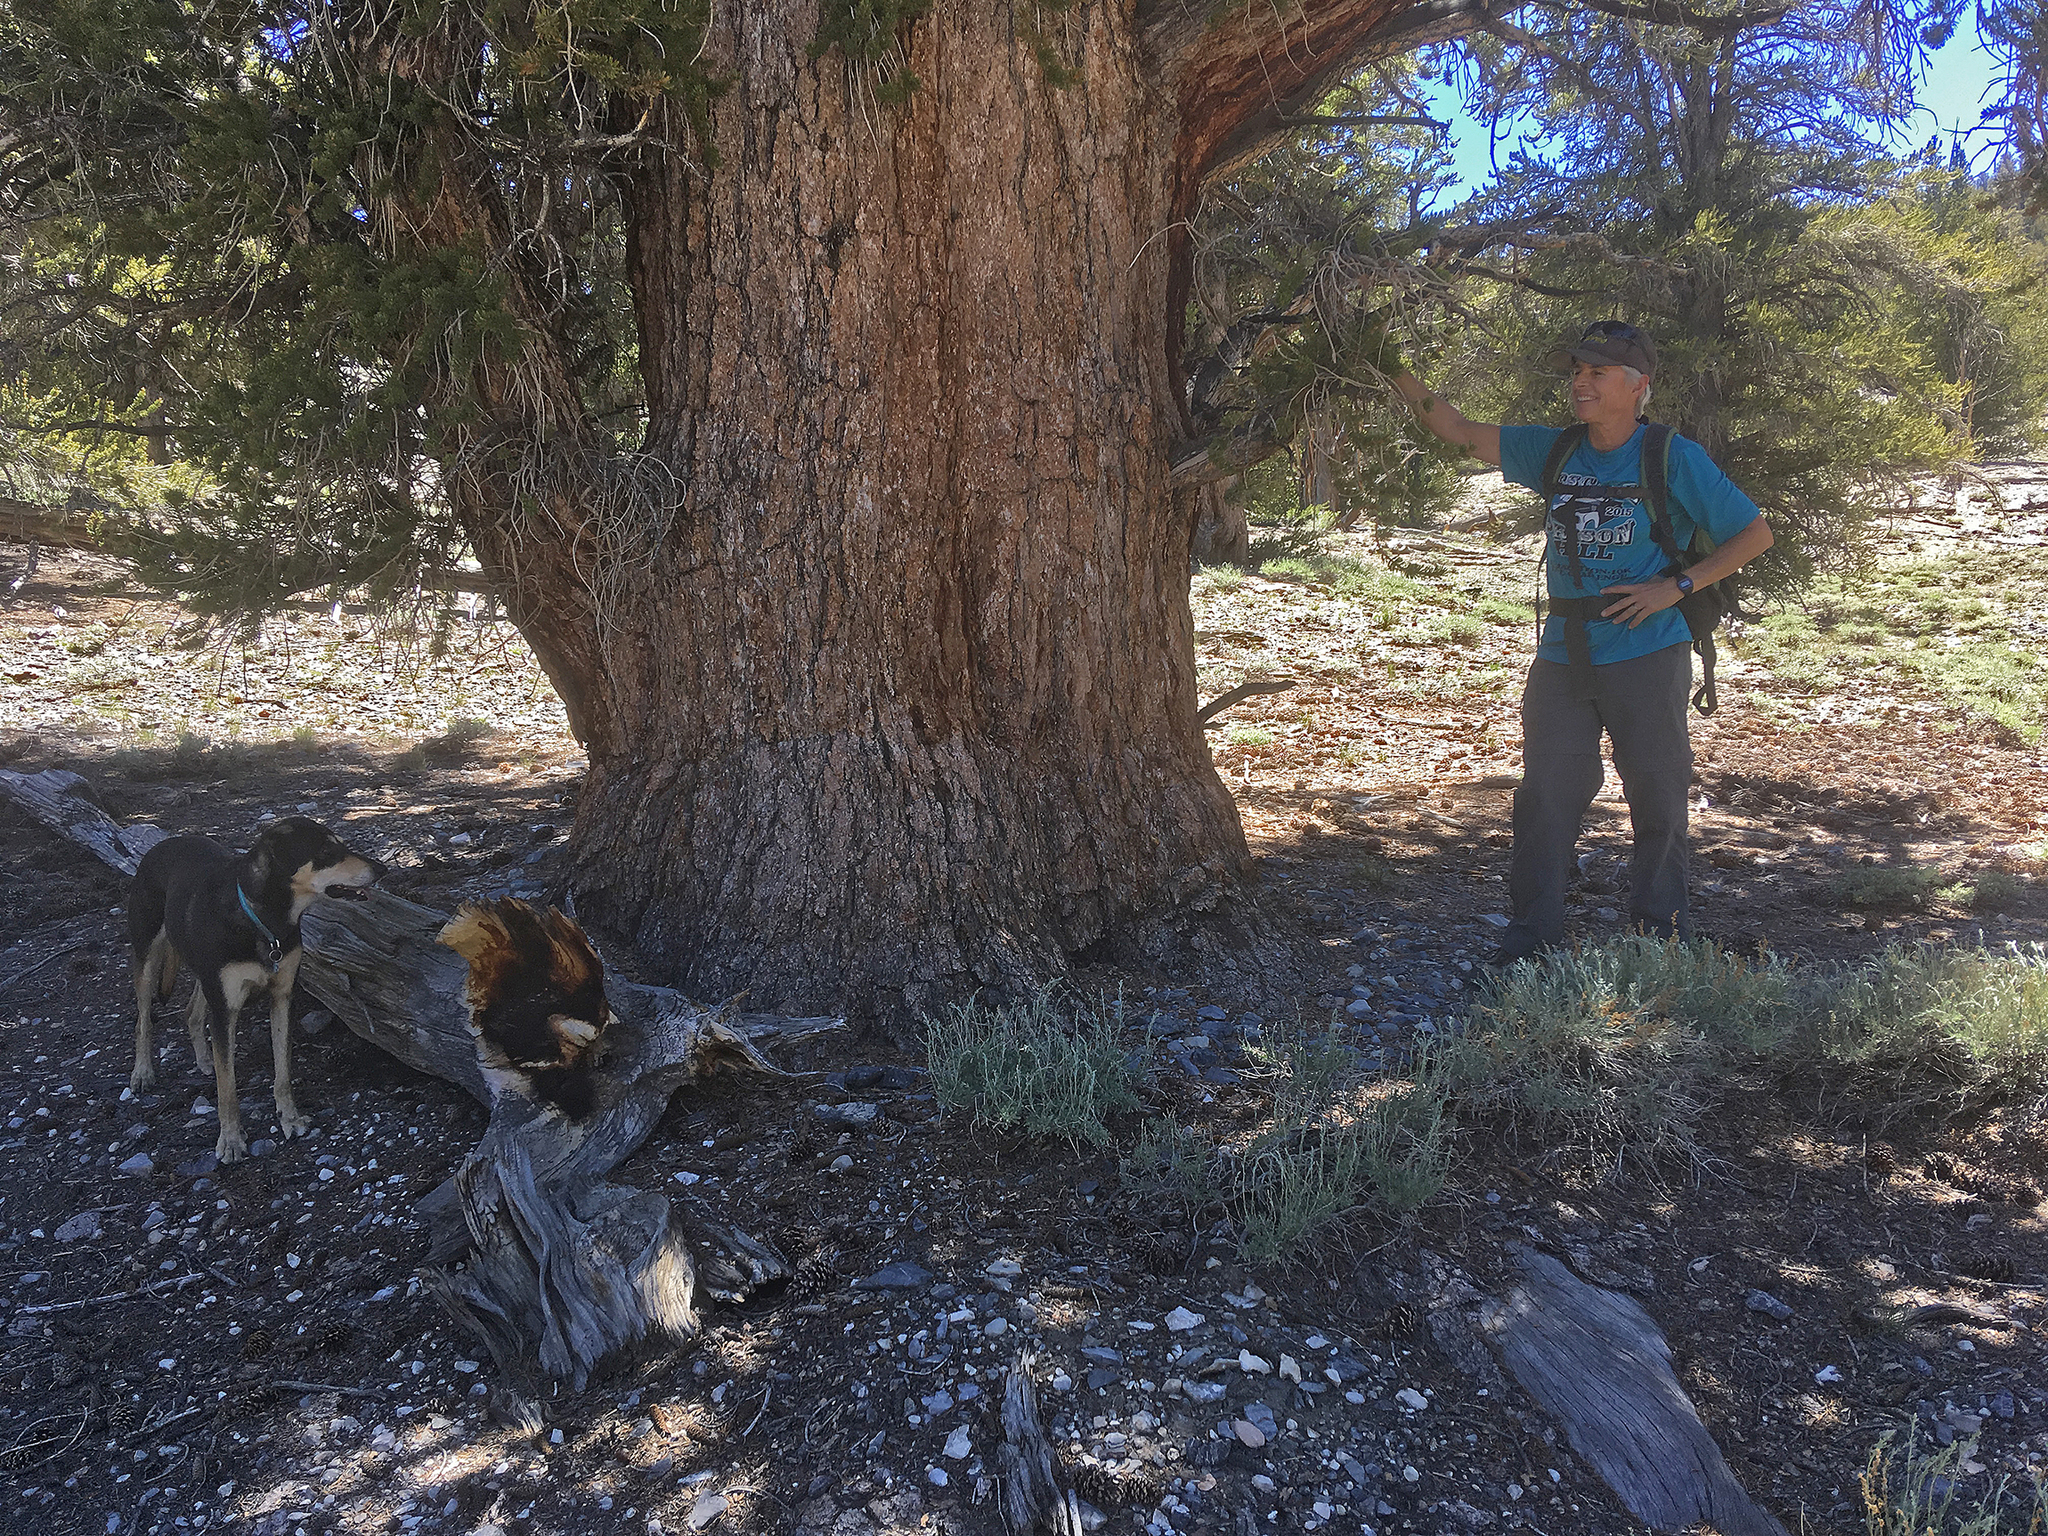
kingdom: Plantae
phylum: Tracheophyta
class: Pinopsida
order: Pinales
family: Pinaceae
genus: Pinus
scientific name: Pinus longaeva
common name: Intermountain bristlecone pine
